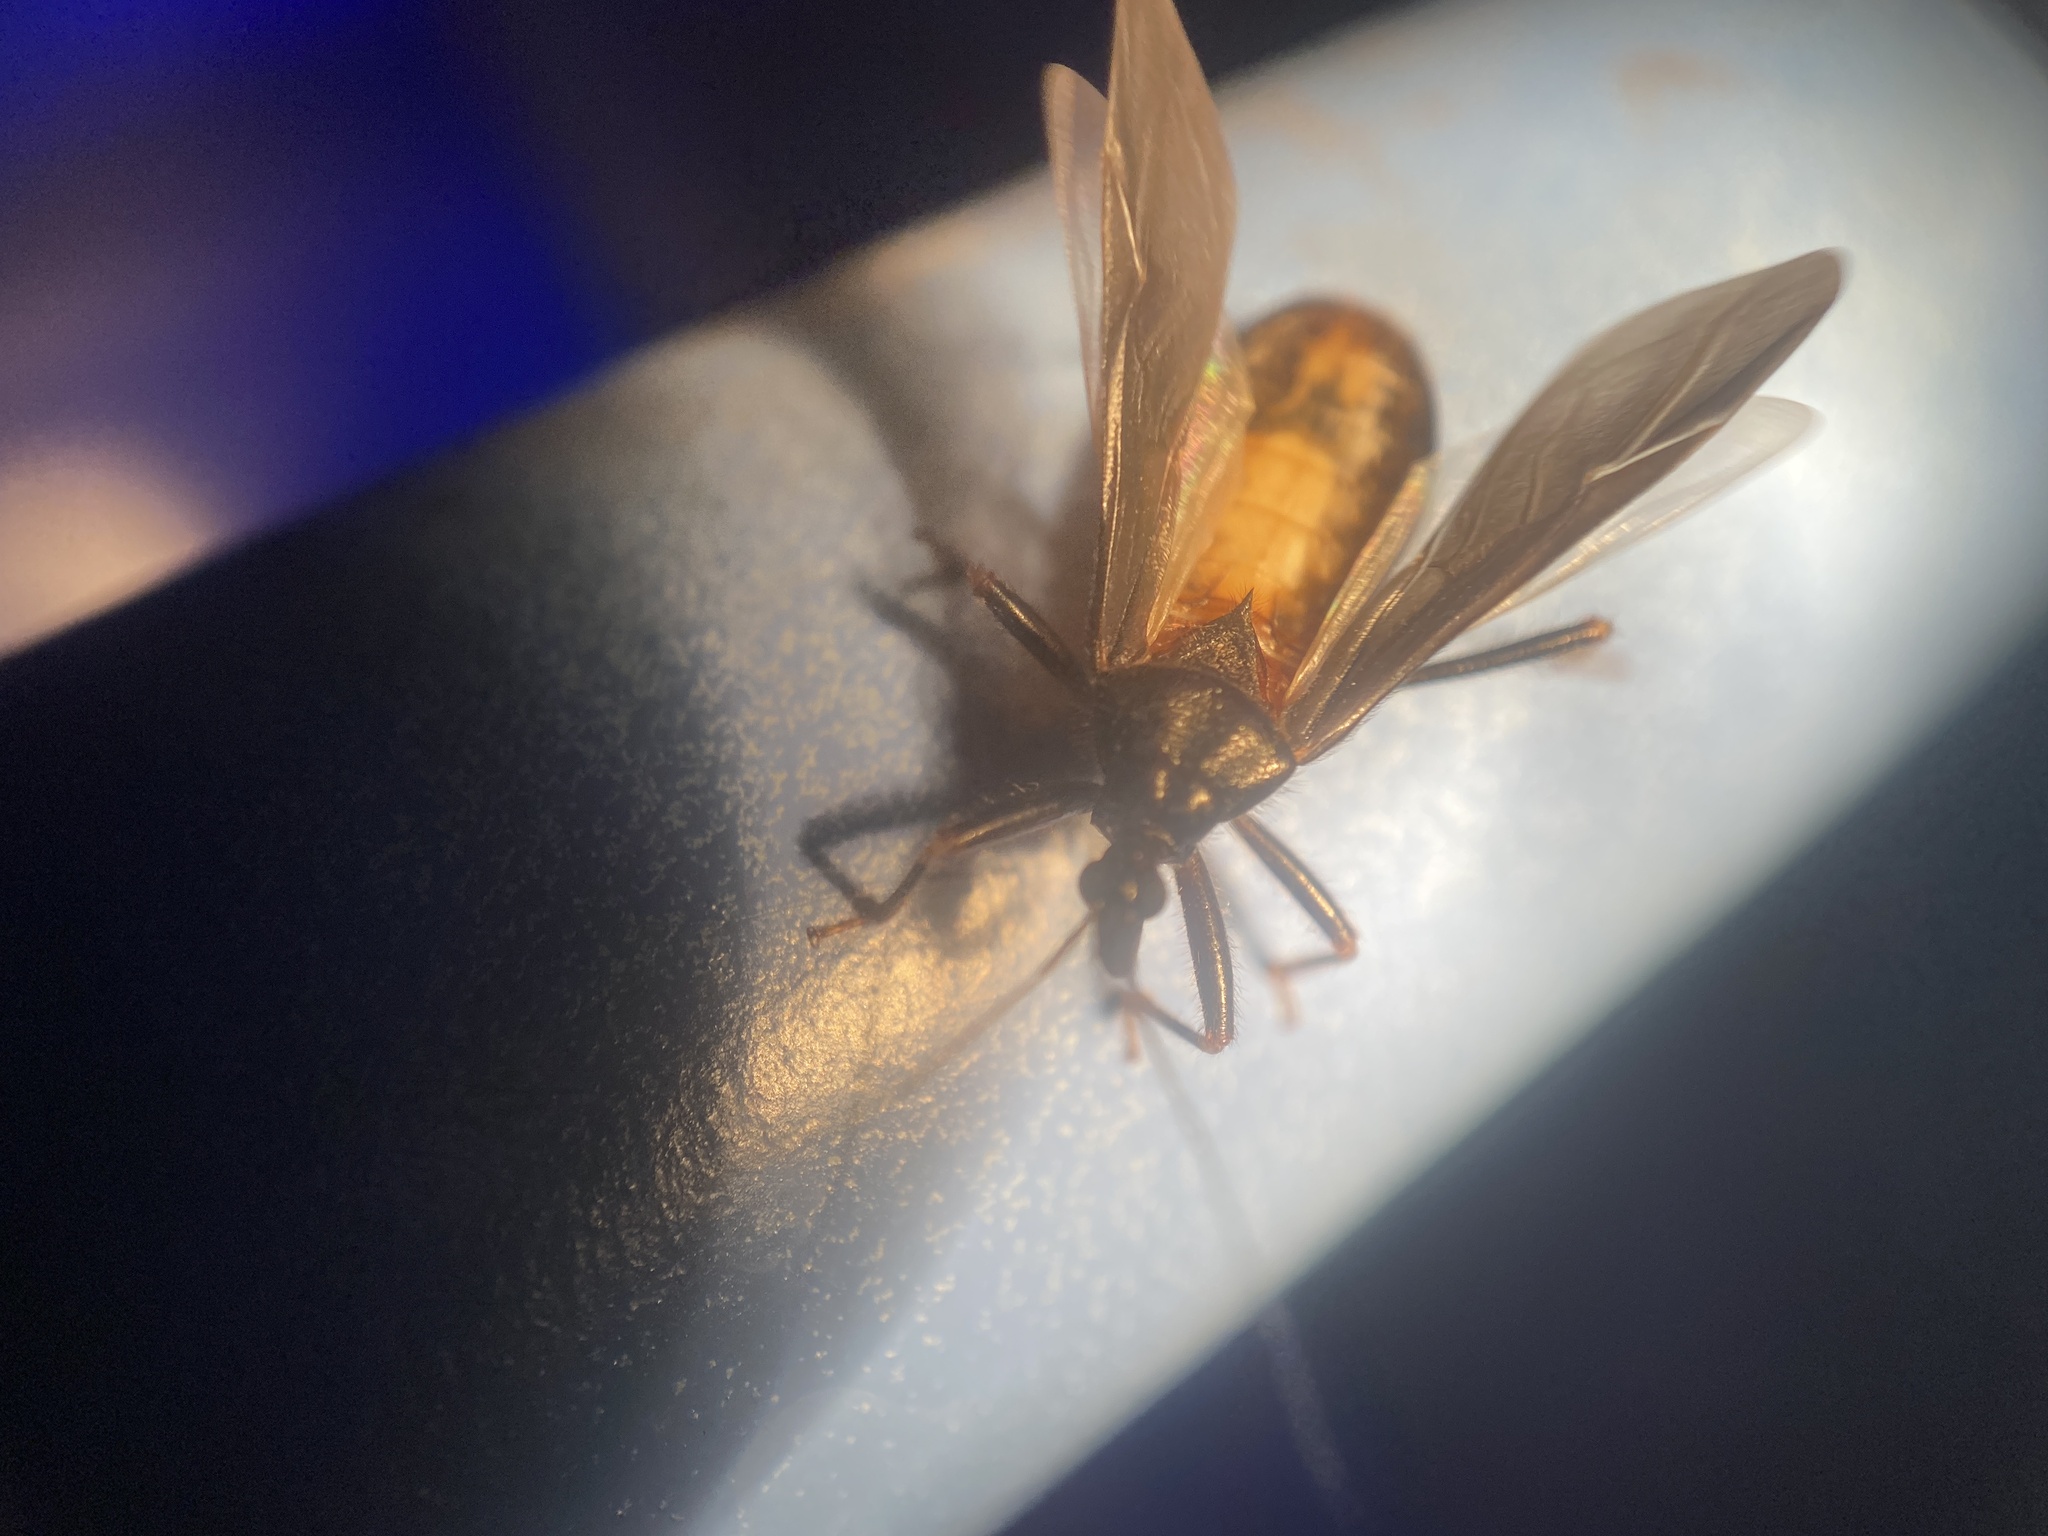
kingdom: Animalia
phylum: Arthropoda
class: Insecta
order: Hemiptera
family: Reduviidae
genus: Reduvius
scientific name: Reduvius personatus
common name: Masked hunter
